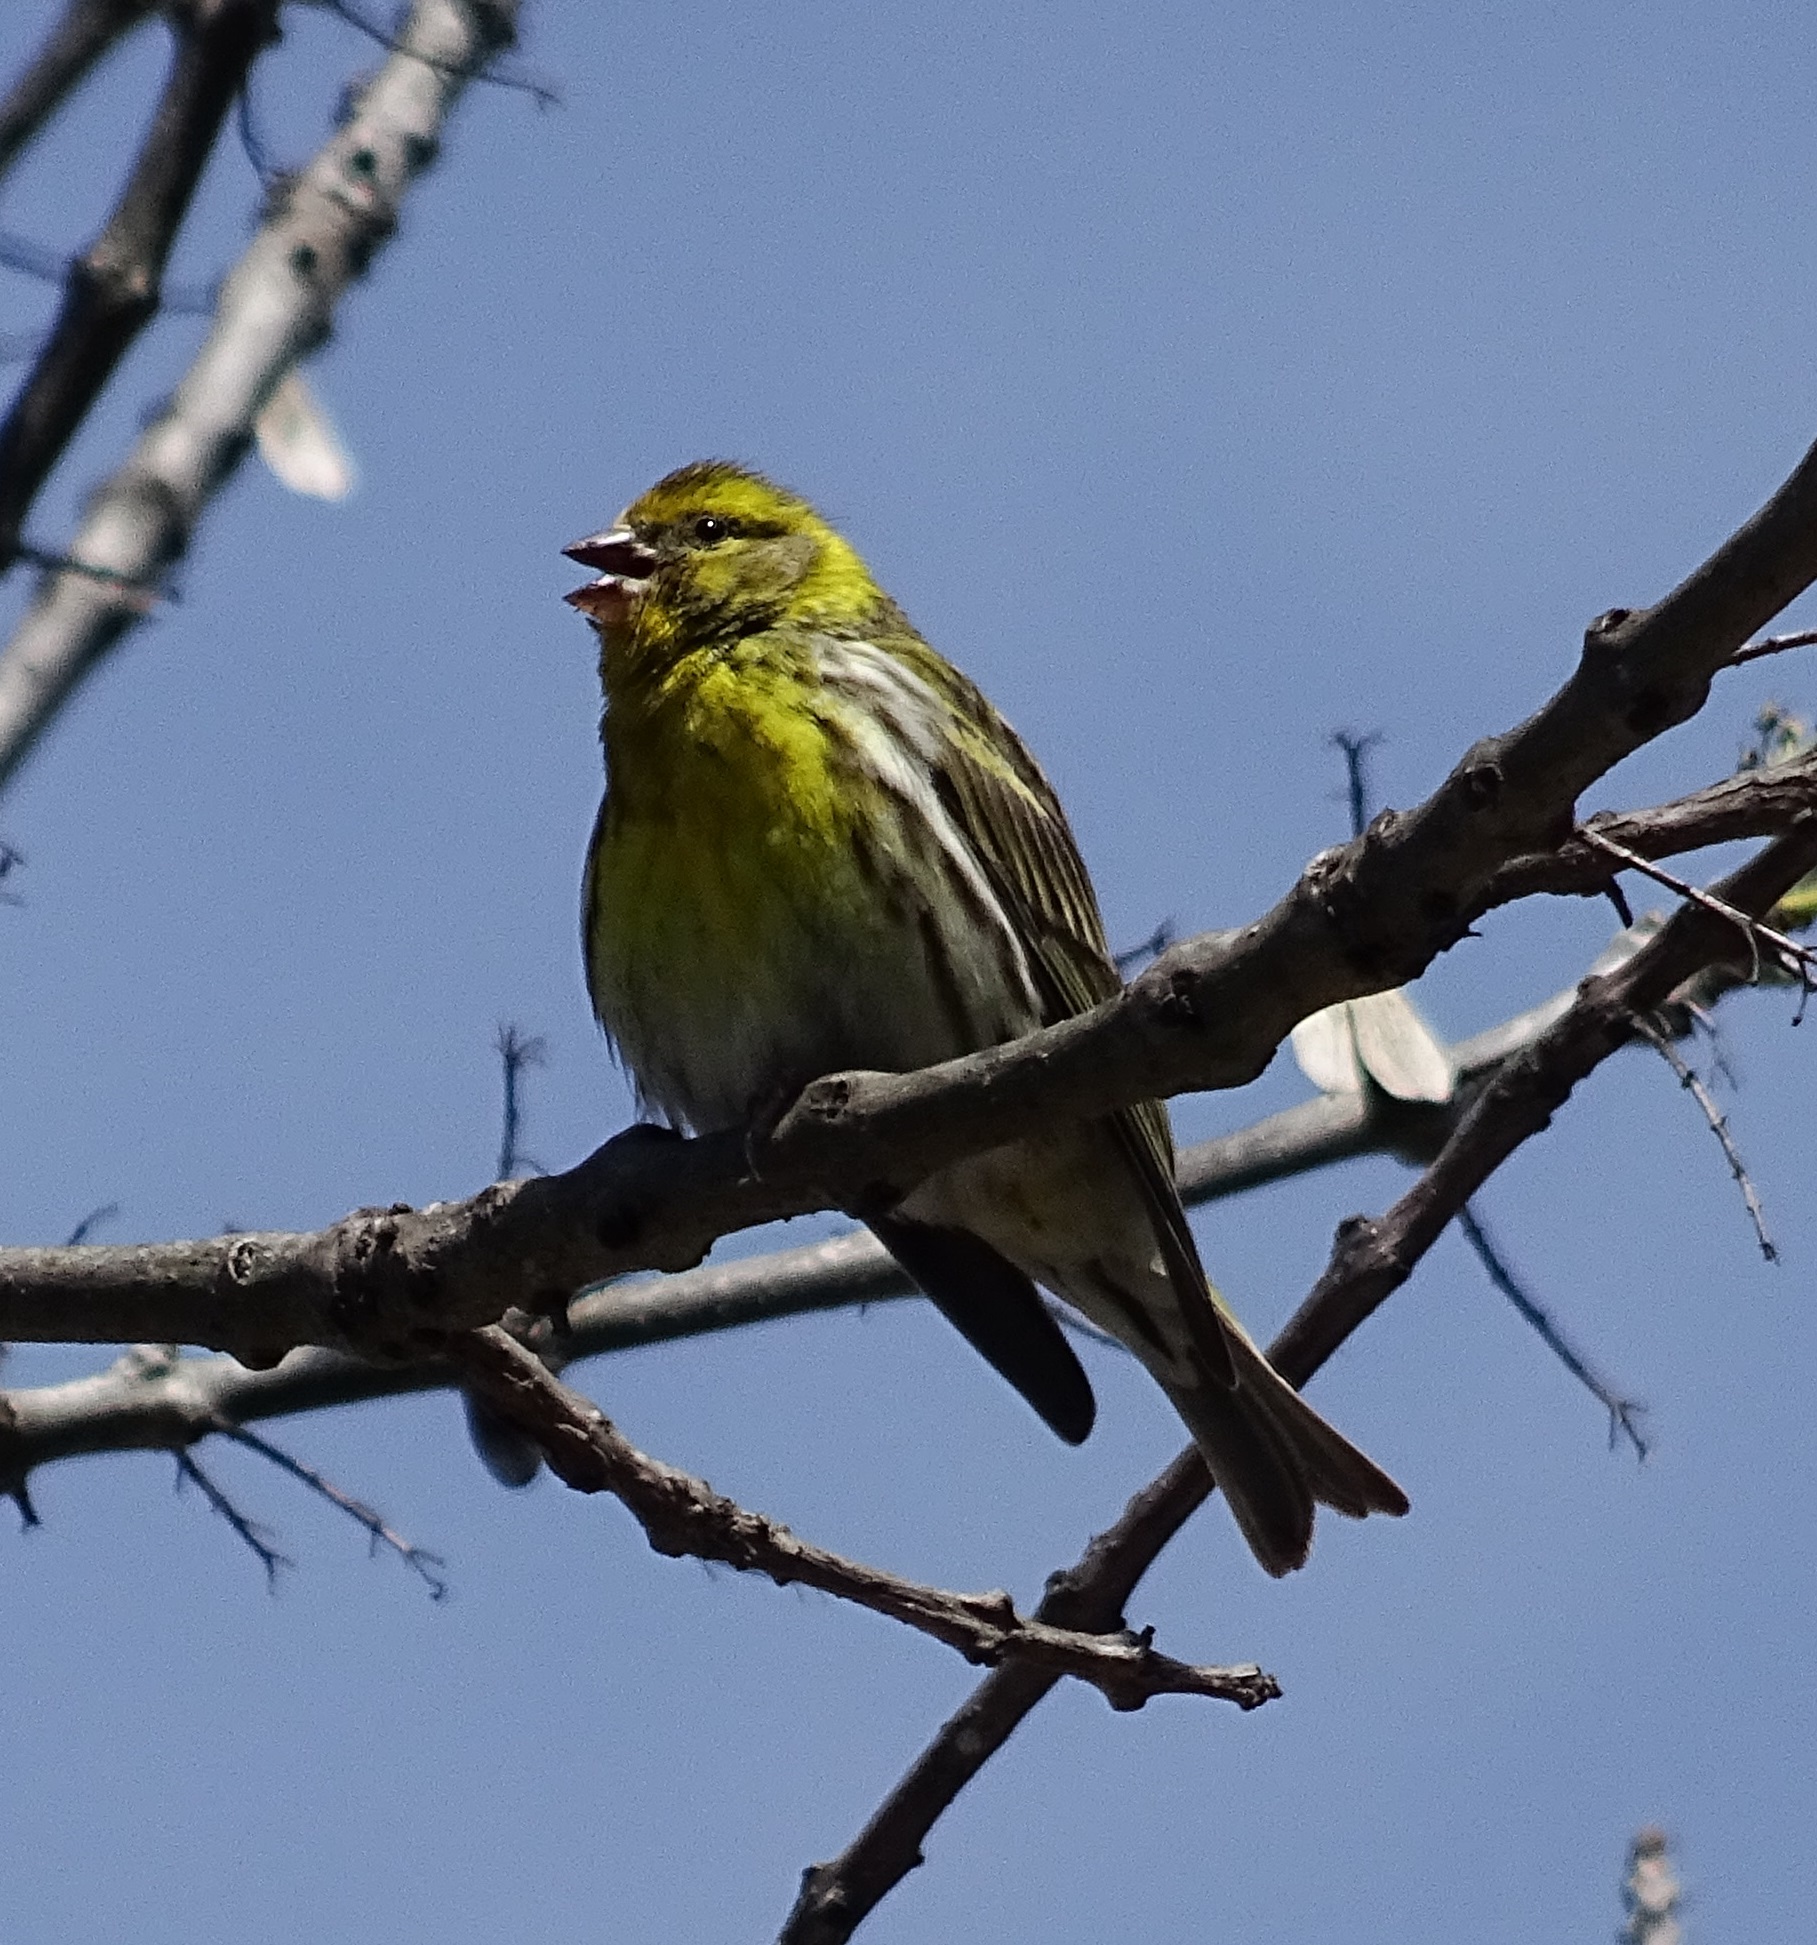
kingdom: Animalia
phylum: Chordata
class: Aves
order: Passeriformes
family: Fringillidae
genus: Serinus
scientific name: Serinus serinus
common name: European serin
